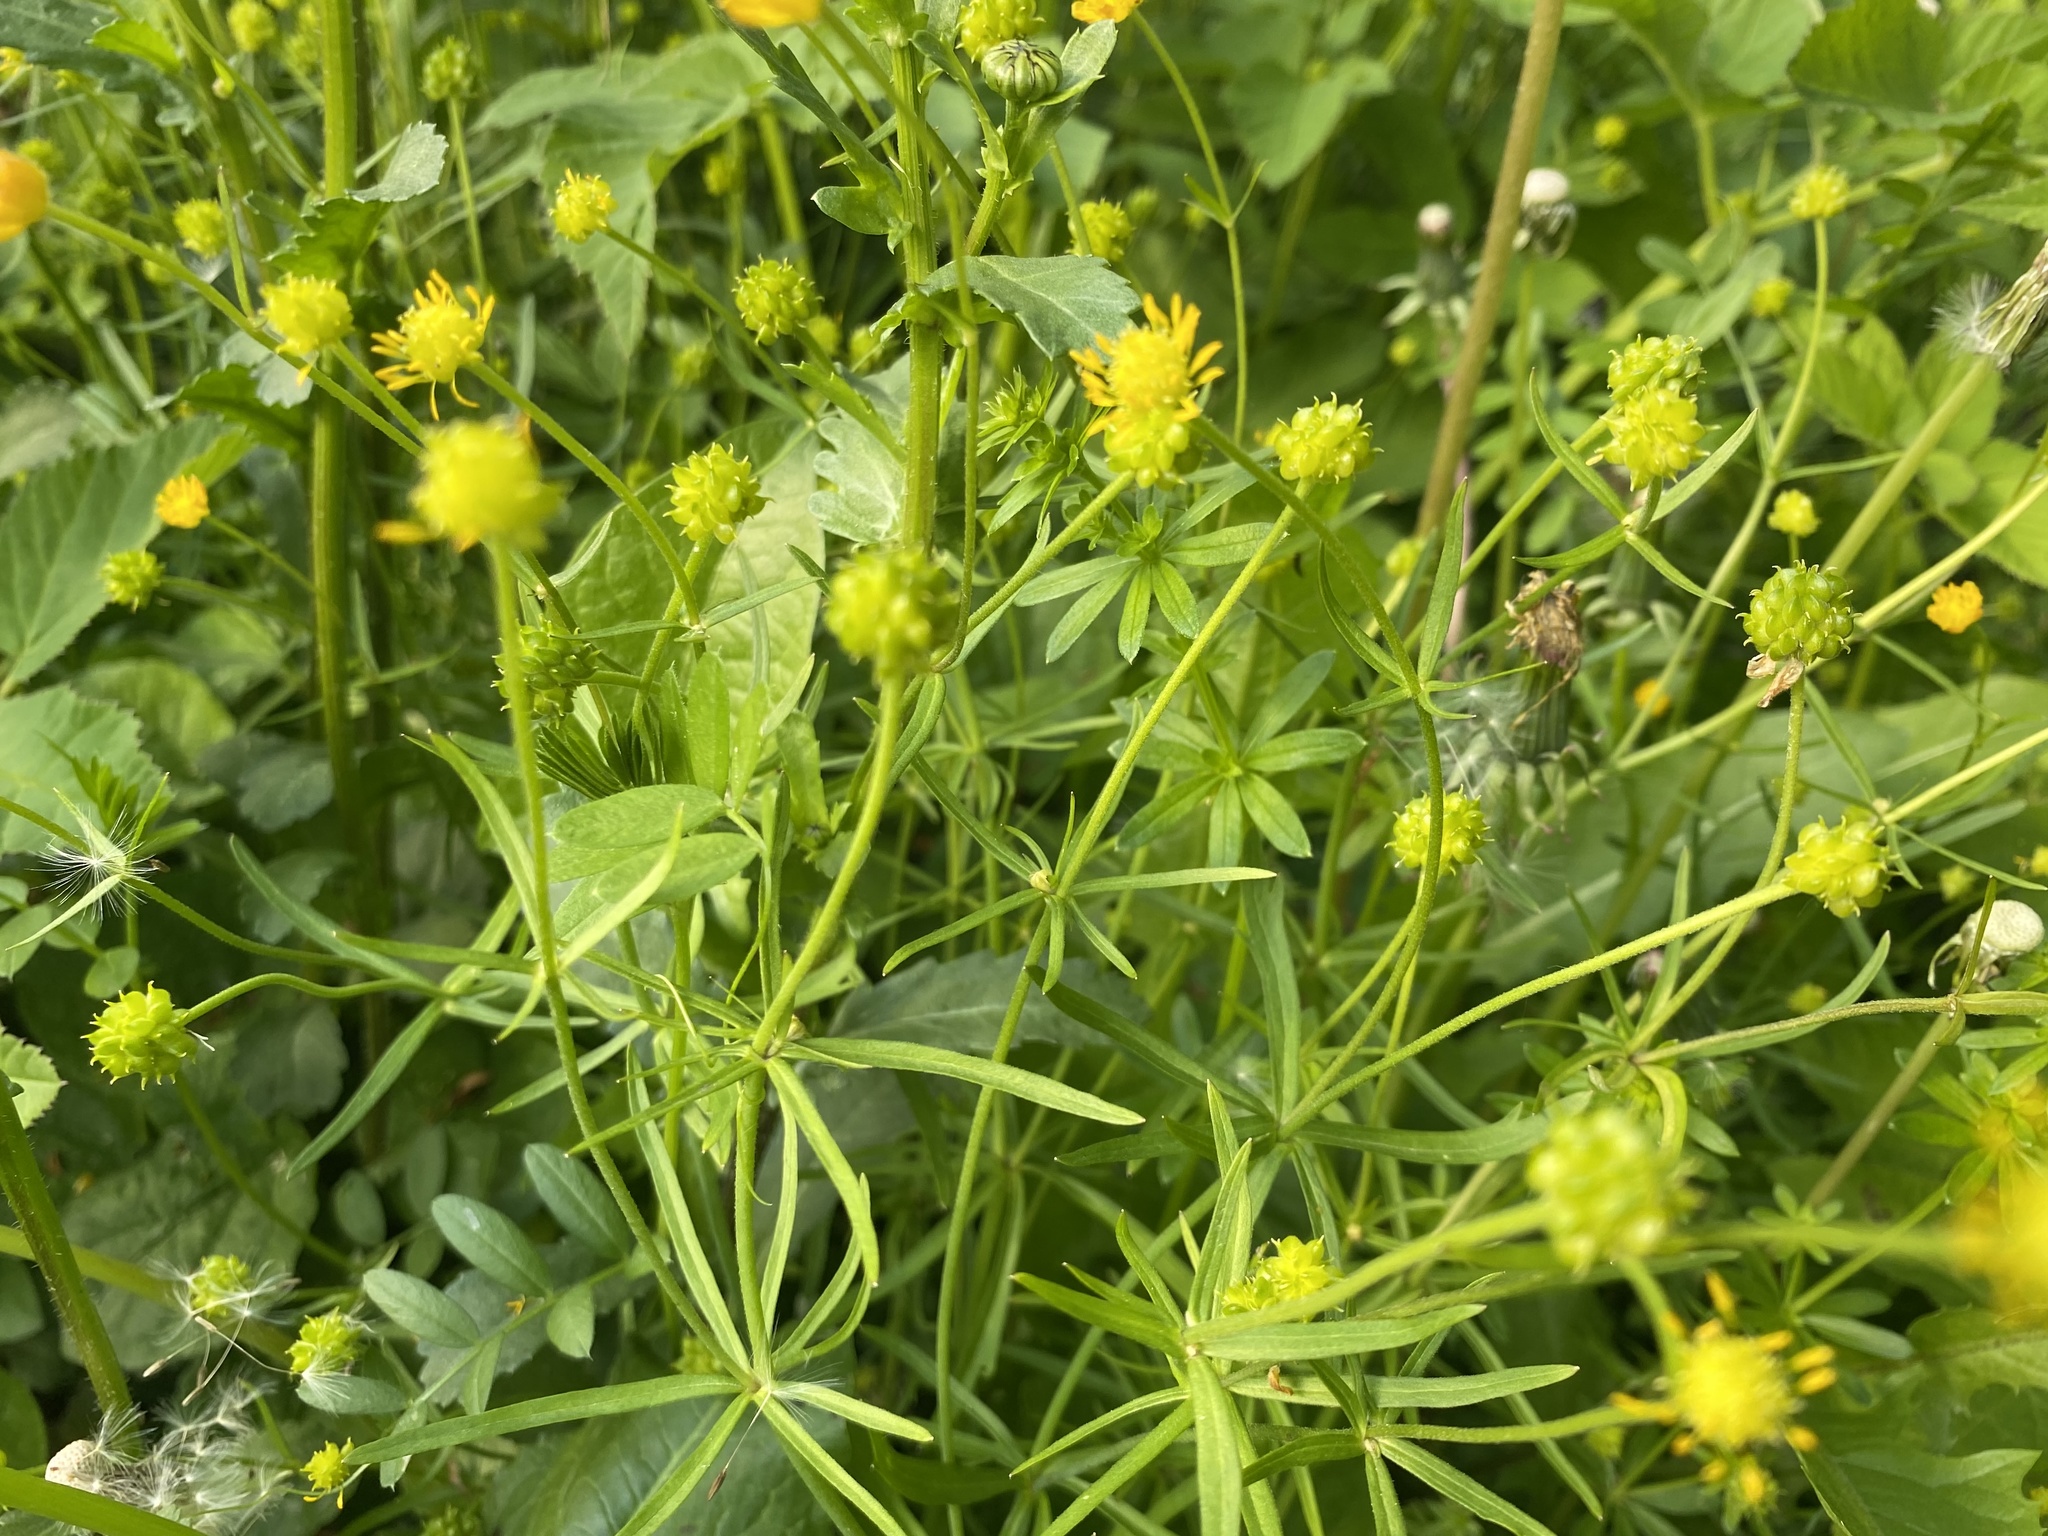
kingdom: Plantae
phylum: Tracheophyta
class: Magnoliopsida
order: Ranunculales
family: Ranunculaceae
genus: Ranunculus
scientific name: Ranunculus auricomus
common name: Goldilocks buttercup
